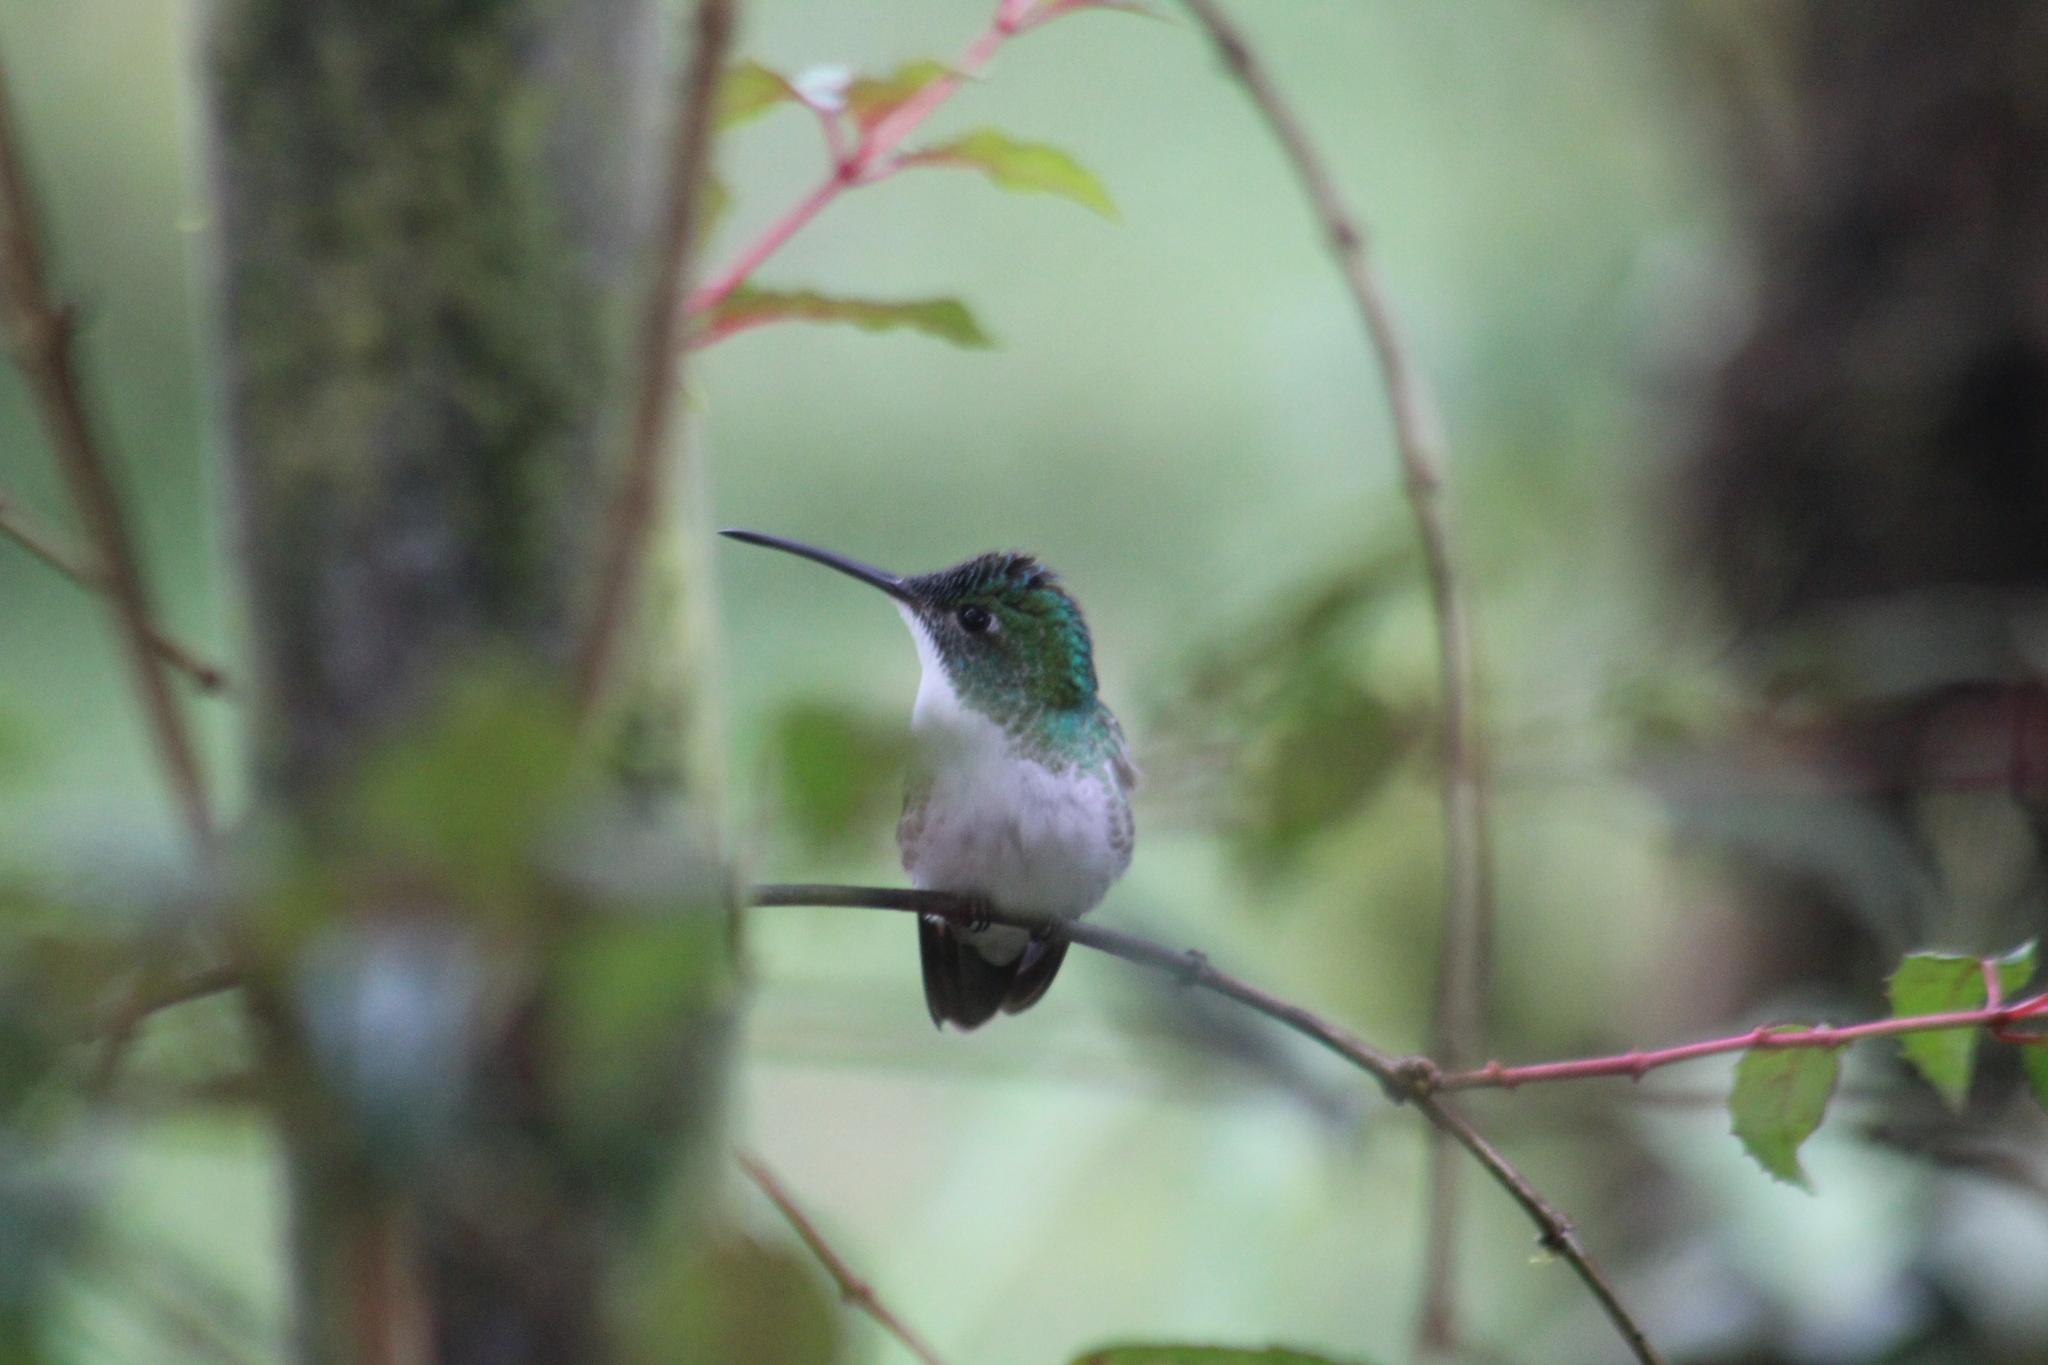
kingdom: Animalia
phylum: Chordata
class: Aves
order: Apodiformes
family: Trochilidae
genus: Uranomitra
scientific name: Uranomitra franciae
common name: Andean emerald
